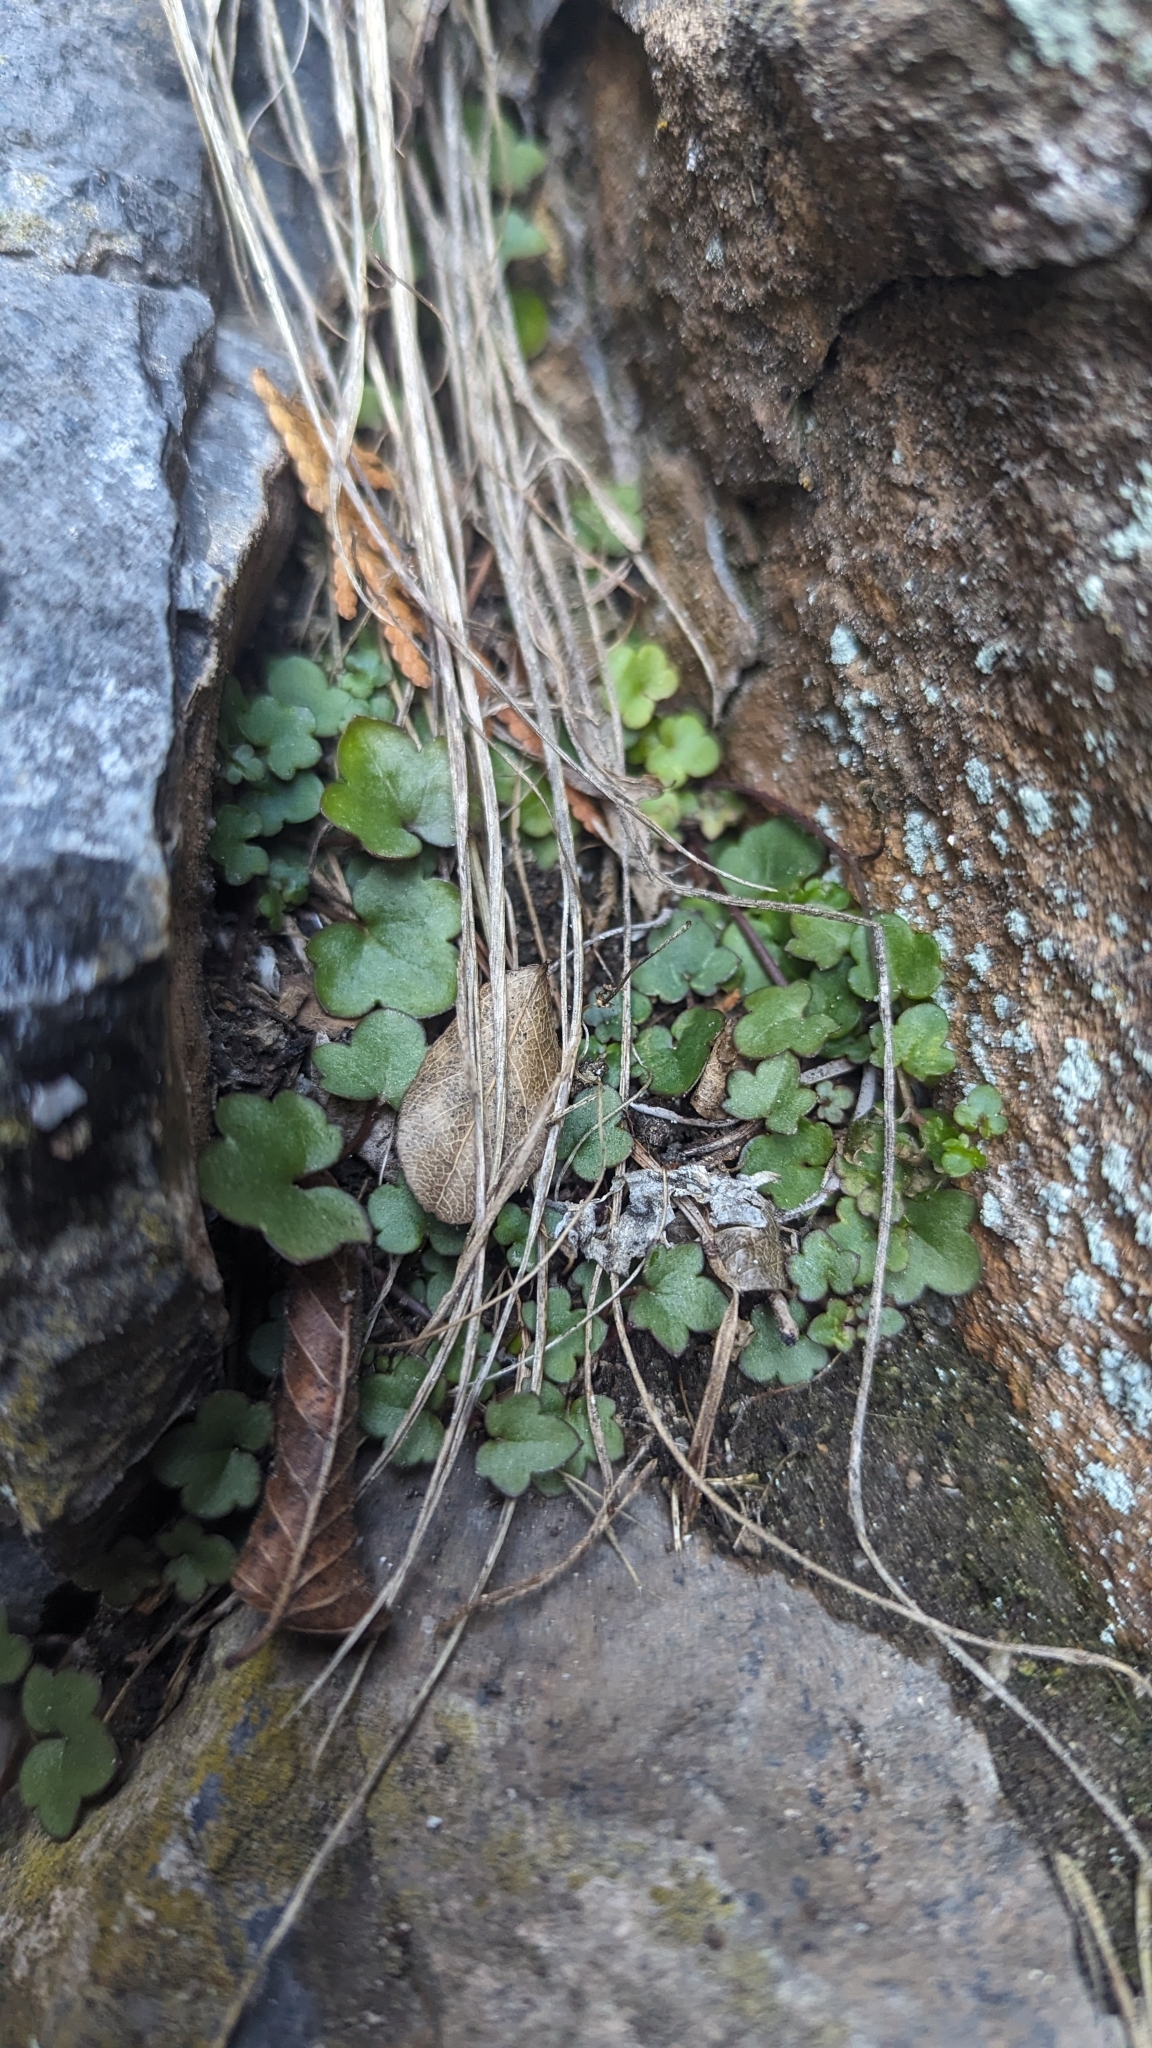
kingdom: Plantae
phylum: Tracheophyta
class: Magnoliopsida
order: Lamiales
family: Plantaginaceae
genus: Cymbalaria
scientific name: Cymbalaria muralis
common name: Ivy-leaved toadflax
